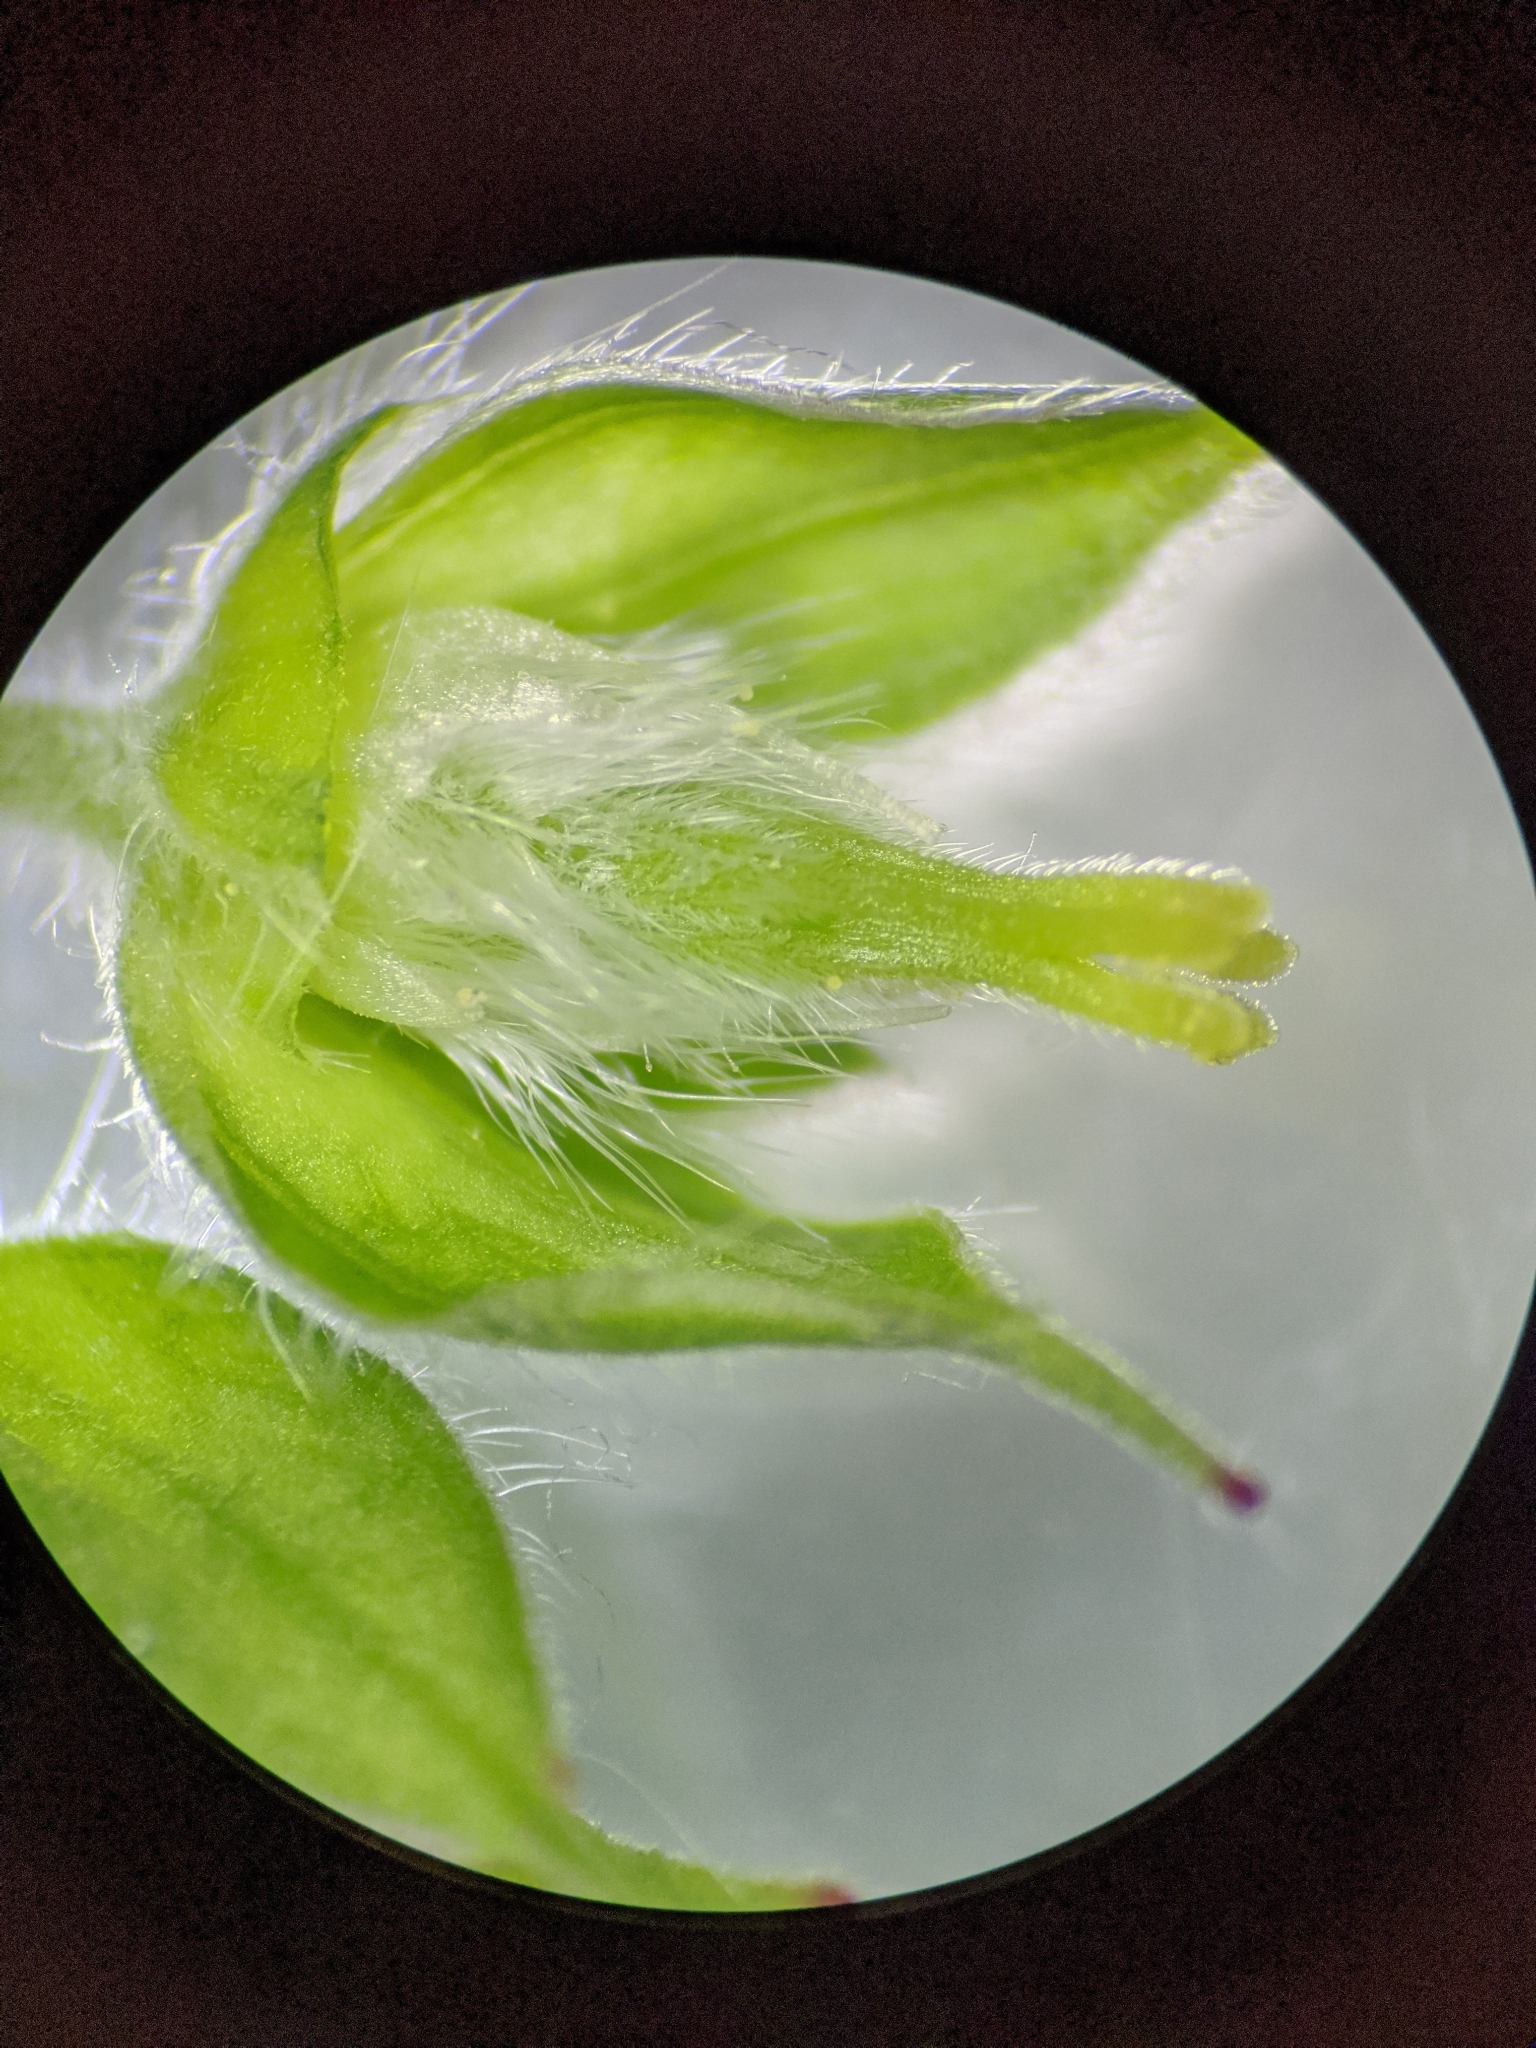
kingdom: Plantae
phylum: Tracheophyta
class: Magnoliopsida
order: Geraniales
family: Geraniaceae
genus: Geranium
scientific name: Geranium carolinianum
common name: Carolina crane's-bill
